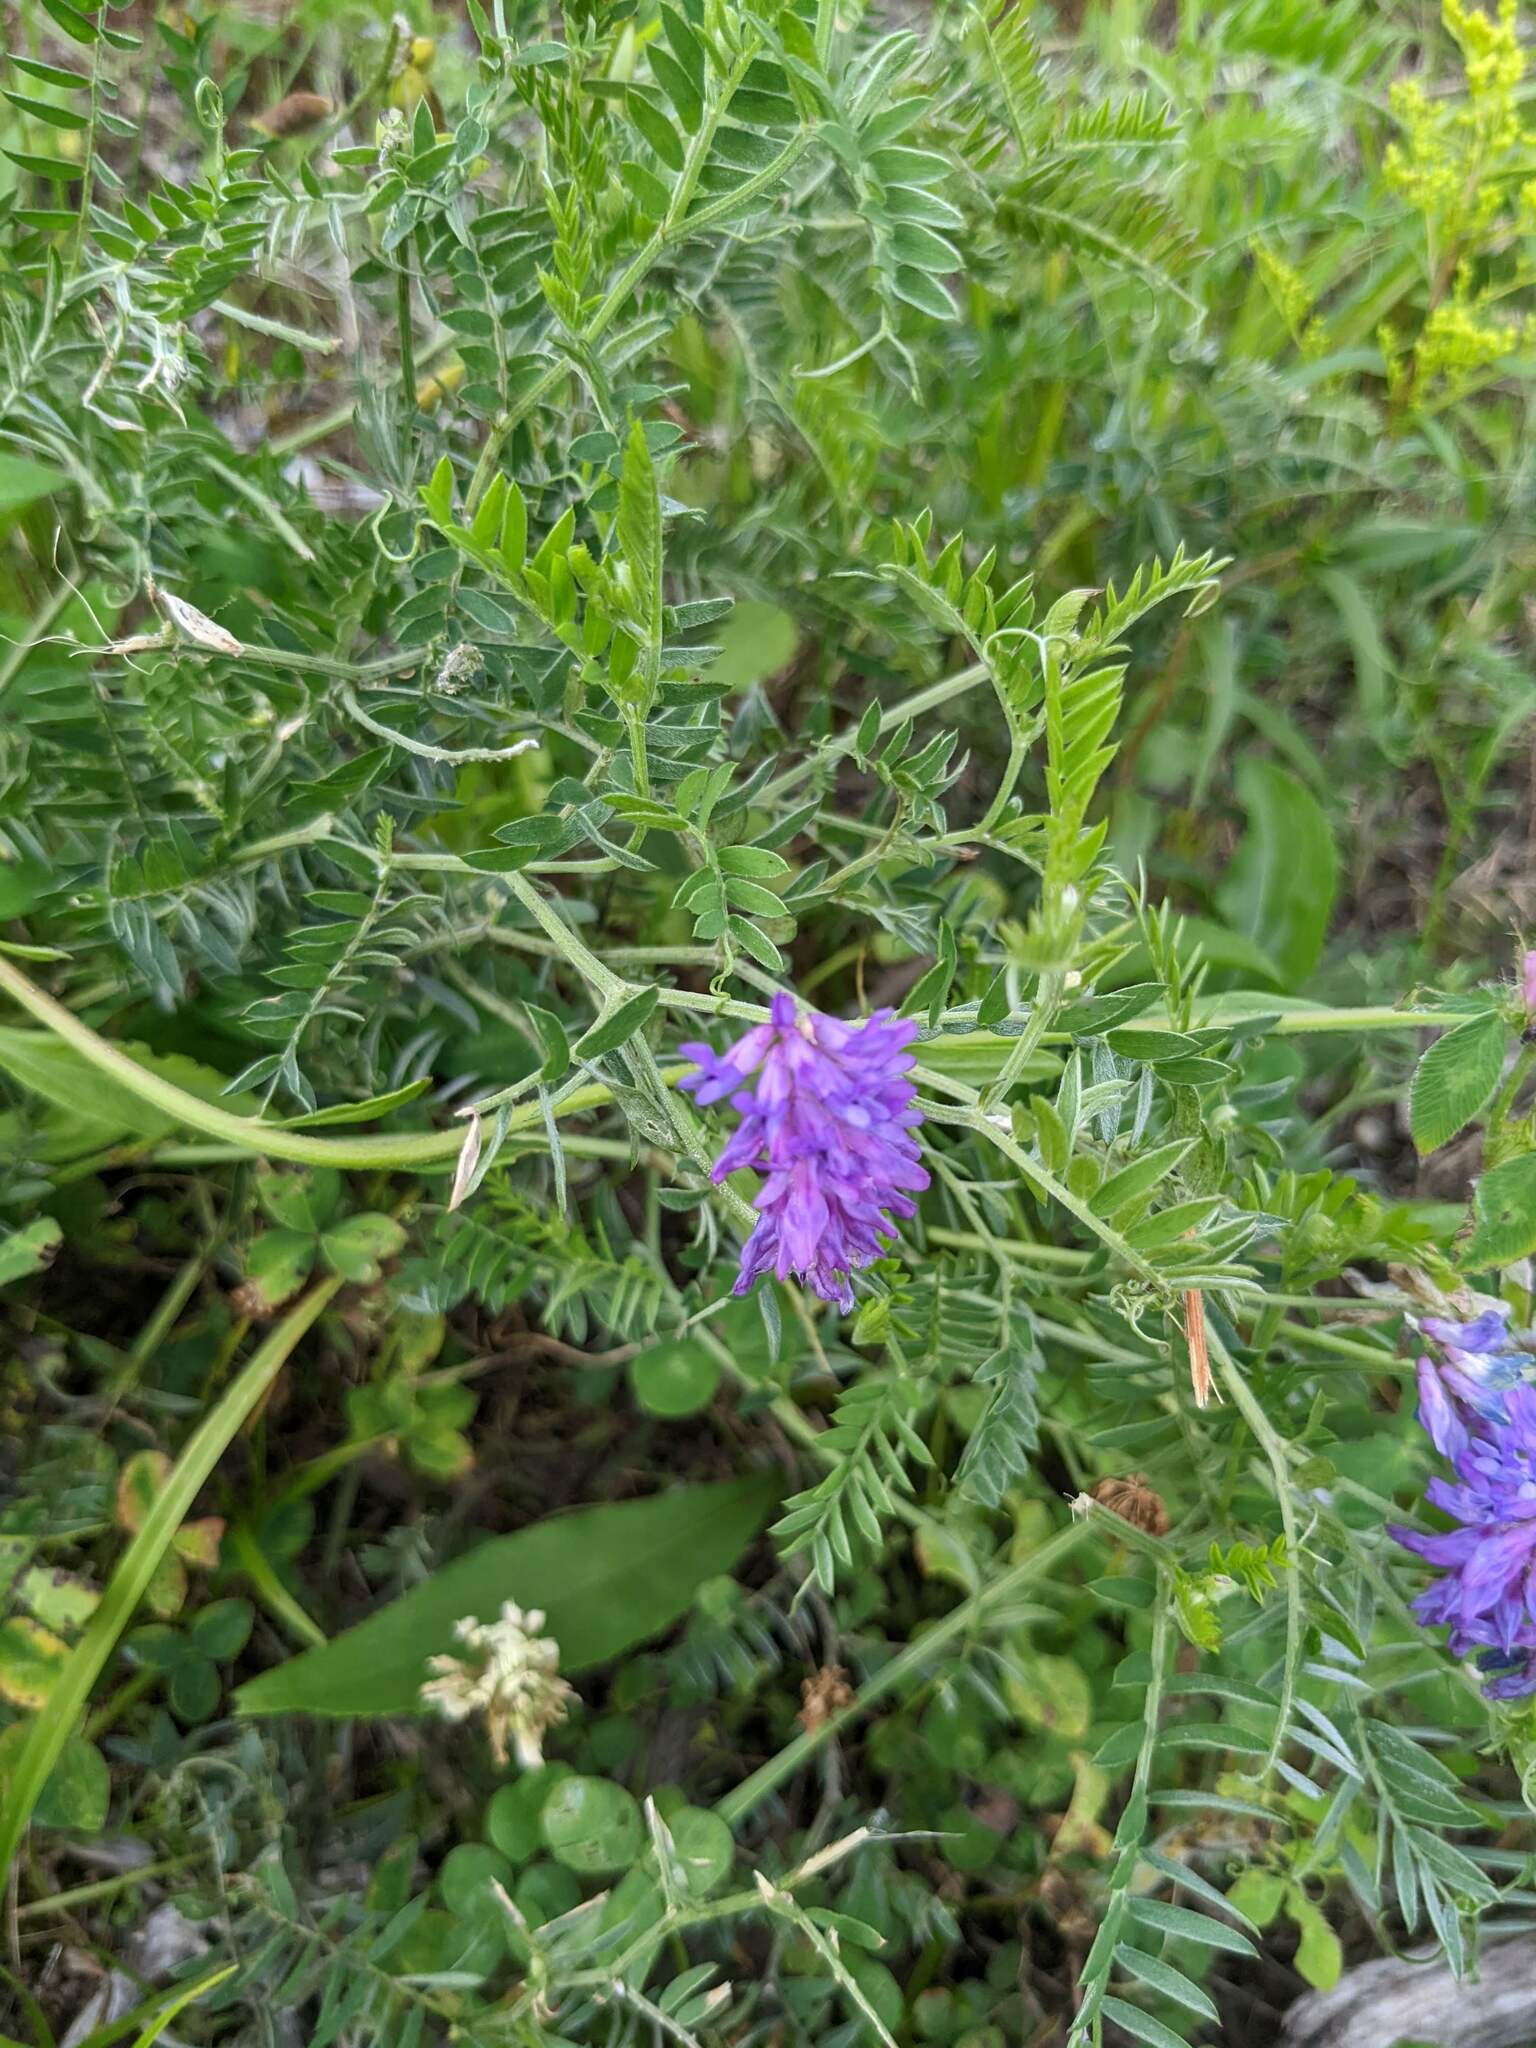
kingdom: Plantae
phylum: Tracheophyta
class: Magnoliopsida
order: Fabales
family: Fabaceae
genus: Vicia
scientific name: Vicia cracca
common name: Bird vetch
